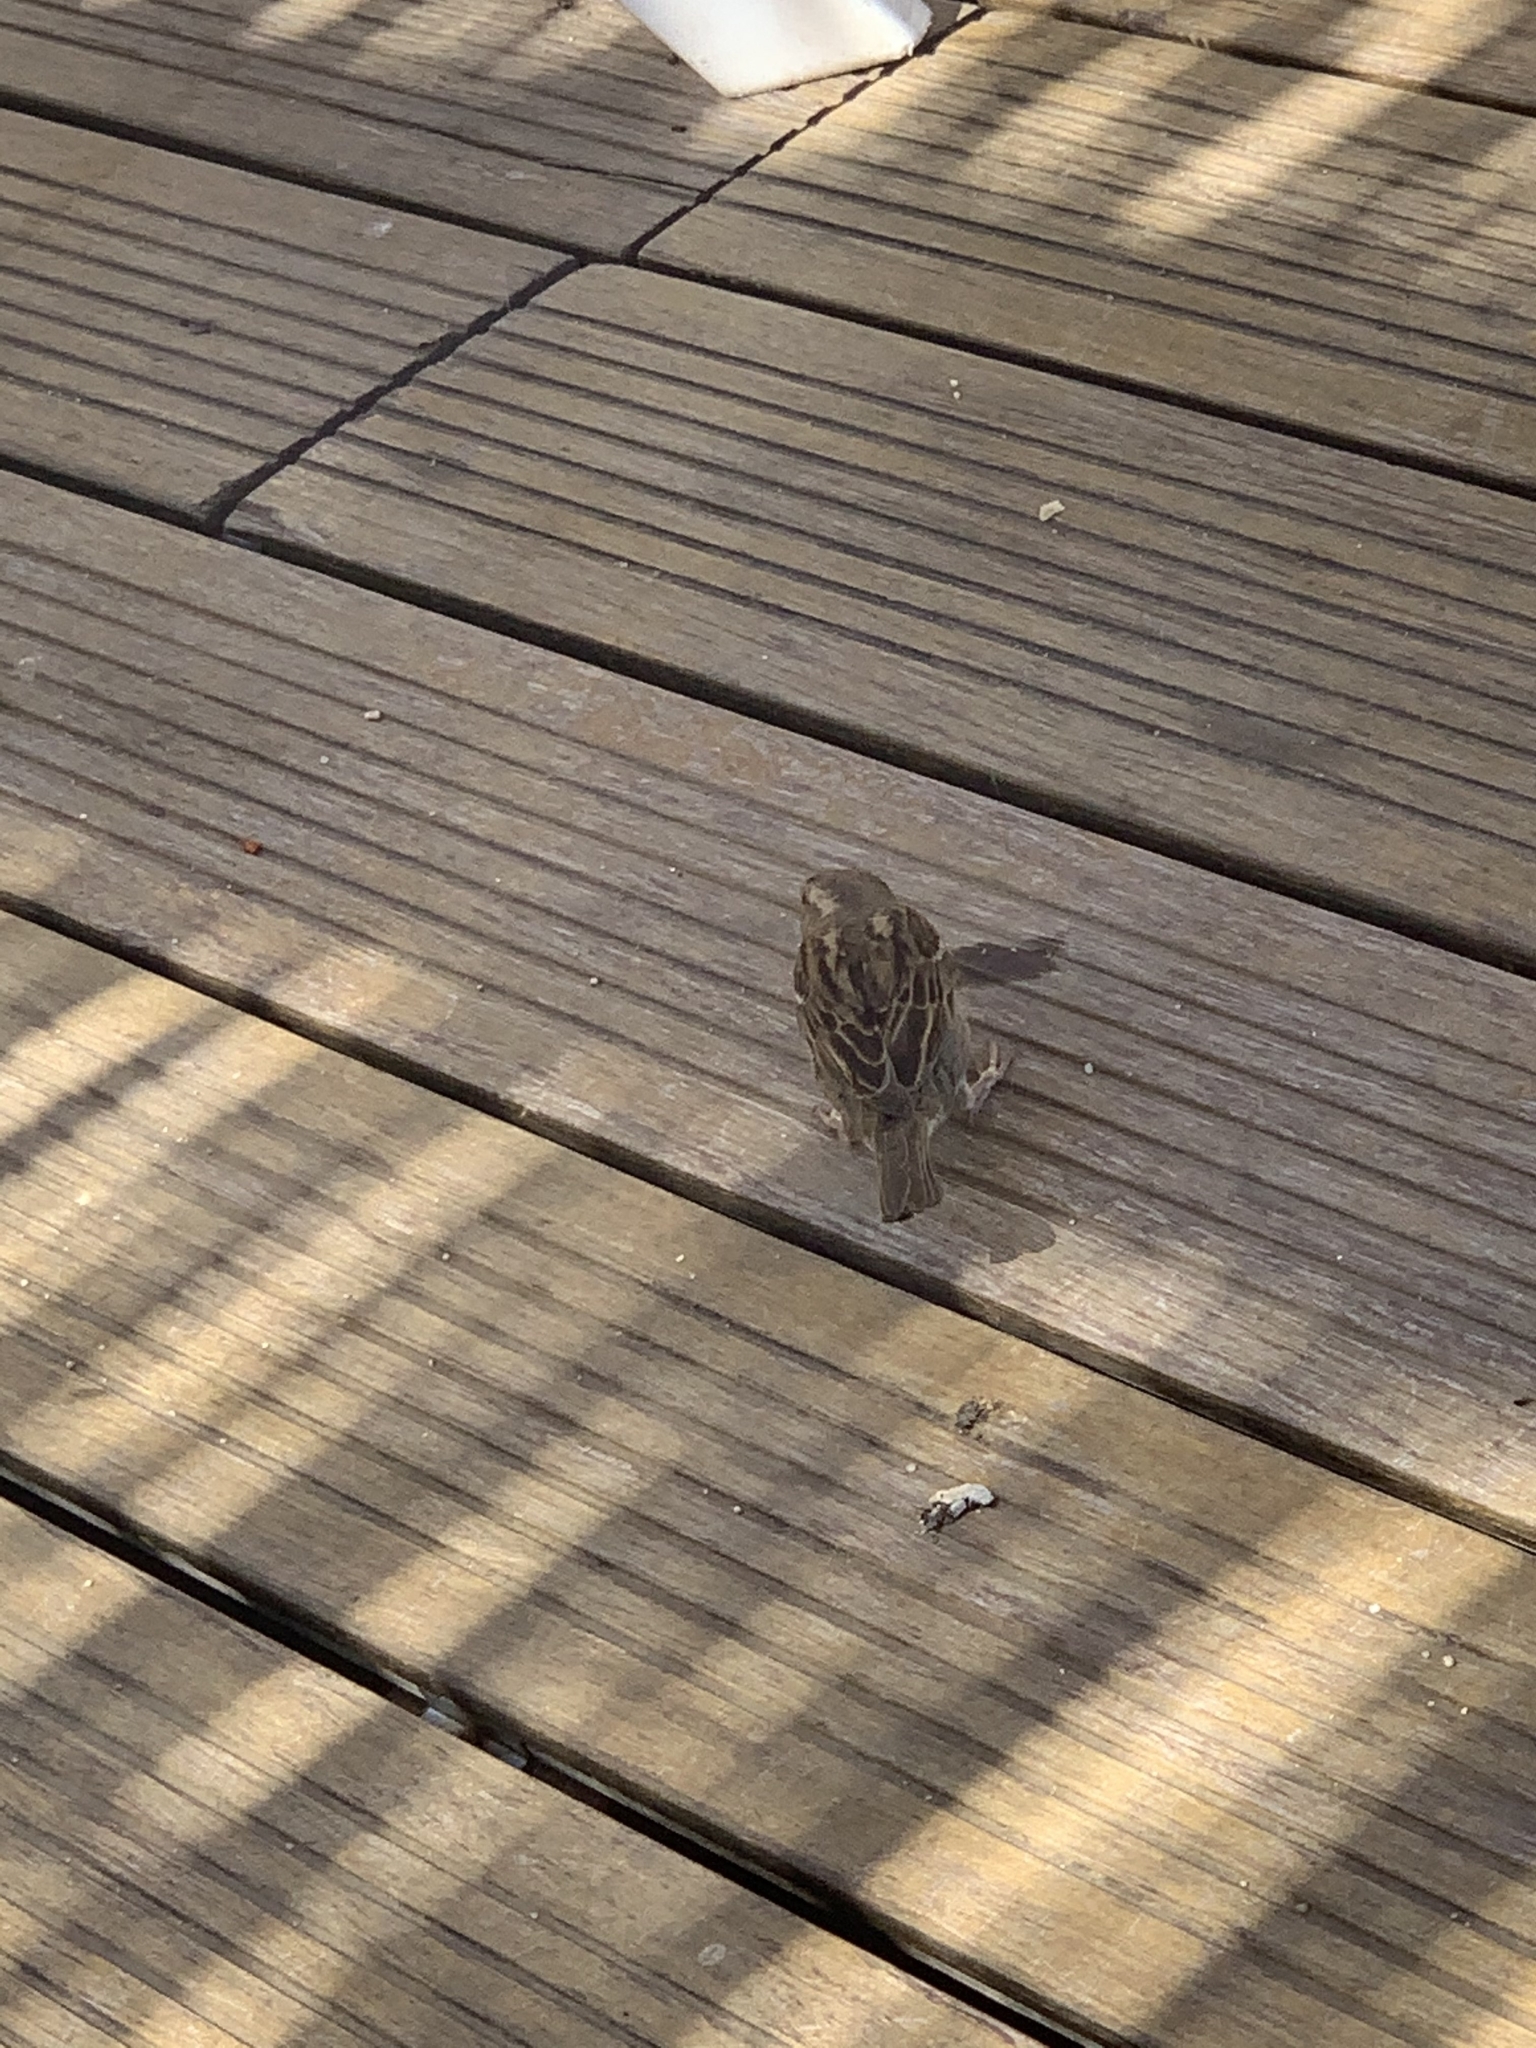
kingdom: Animalia
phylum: Chordata
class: Aves
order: Passeriformes
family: Passeridae
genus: Passer
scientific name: Passer domesticus
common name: House sparrow
